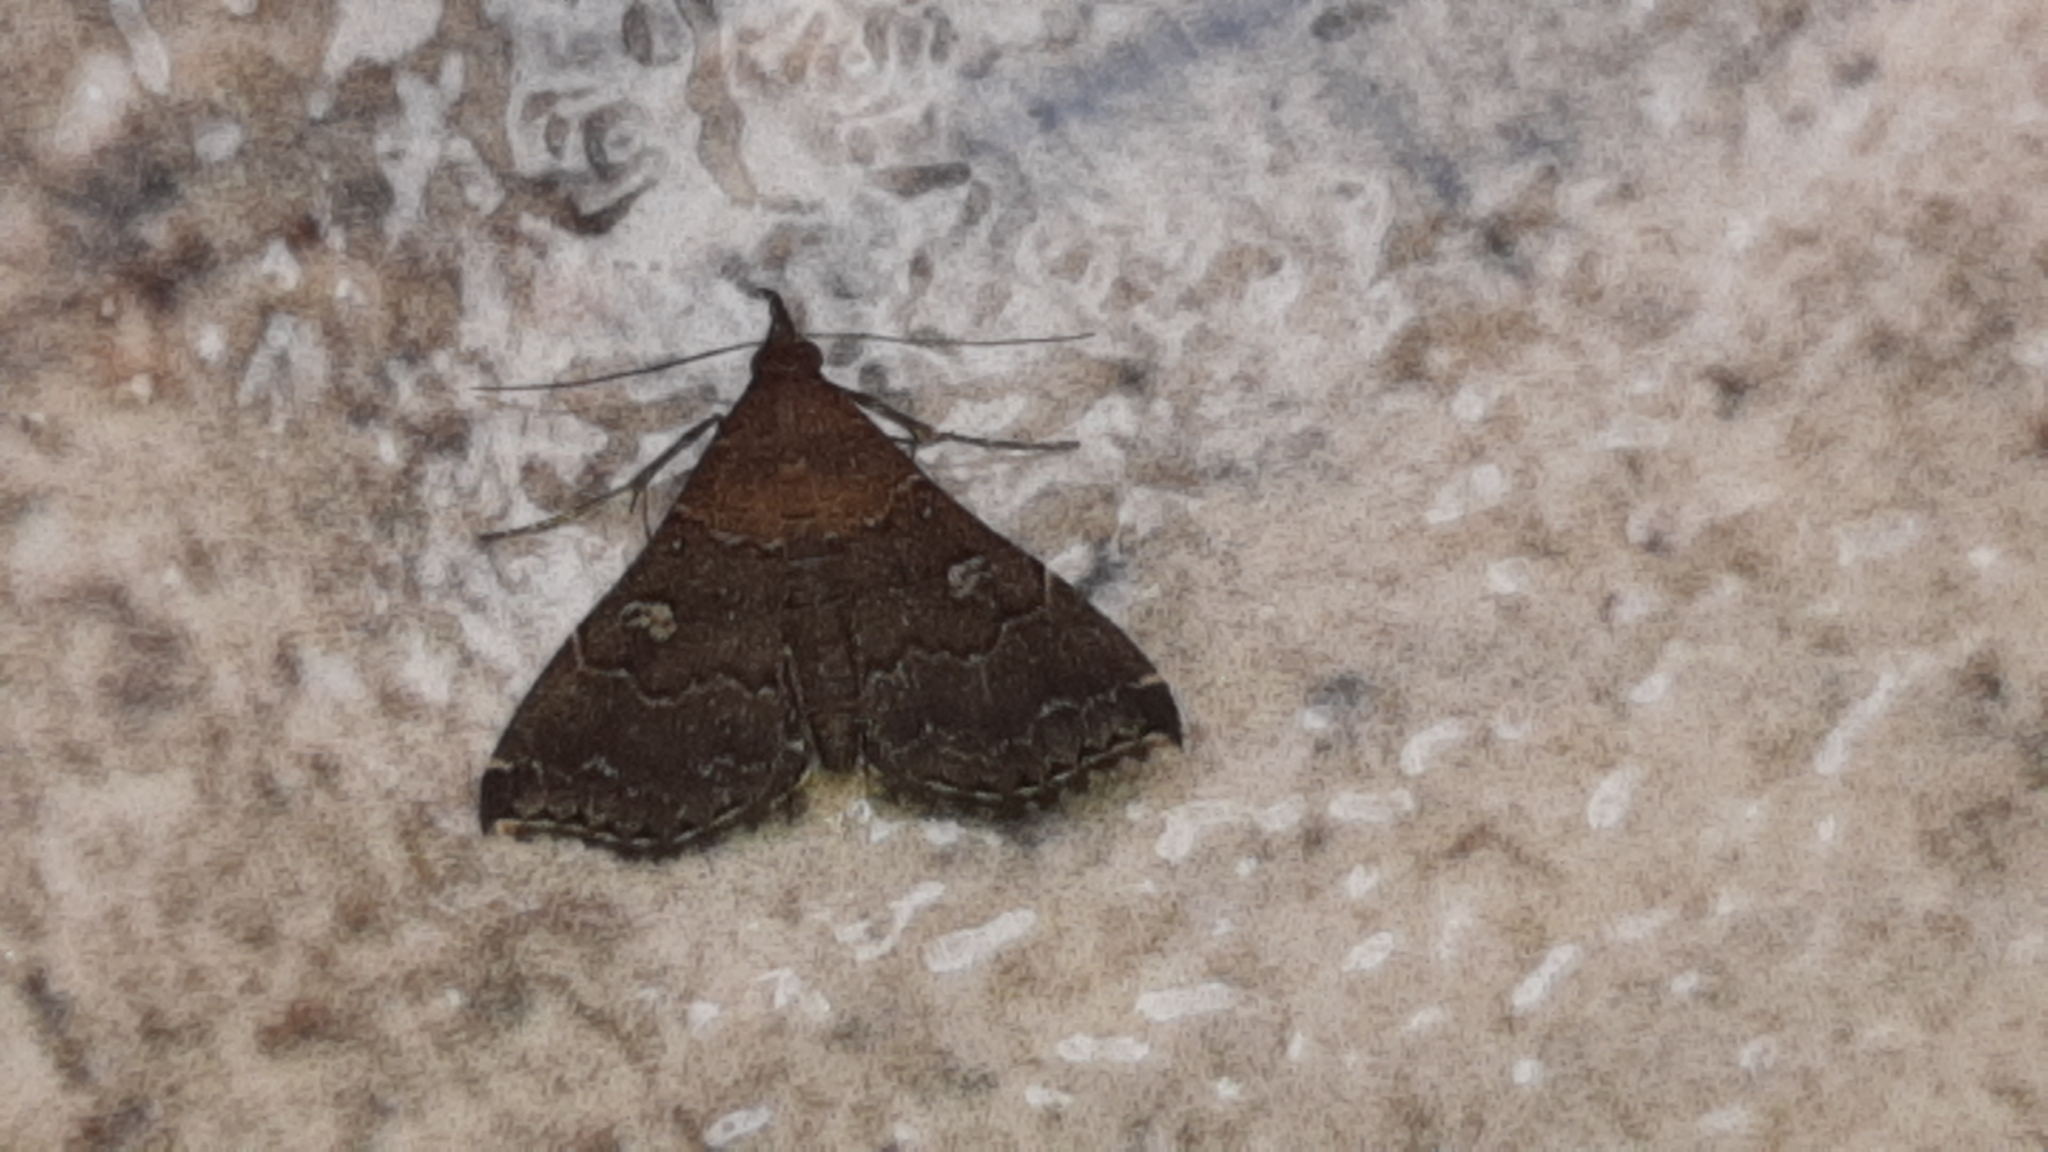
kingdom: Animalia
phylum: Arthropoda
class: Insecta
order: Lepidoptera
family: Erebidae
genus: Phlyctaina
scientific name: Phlyctaina irrigualis
